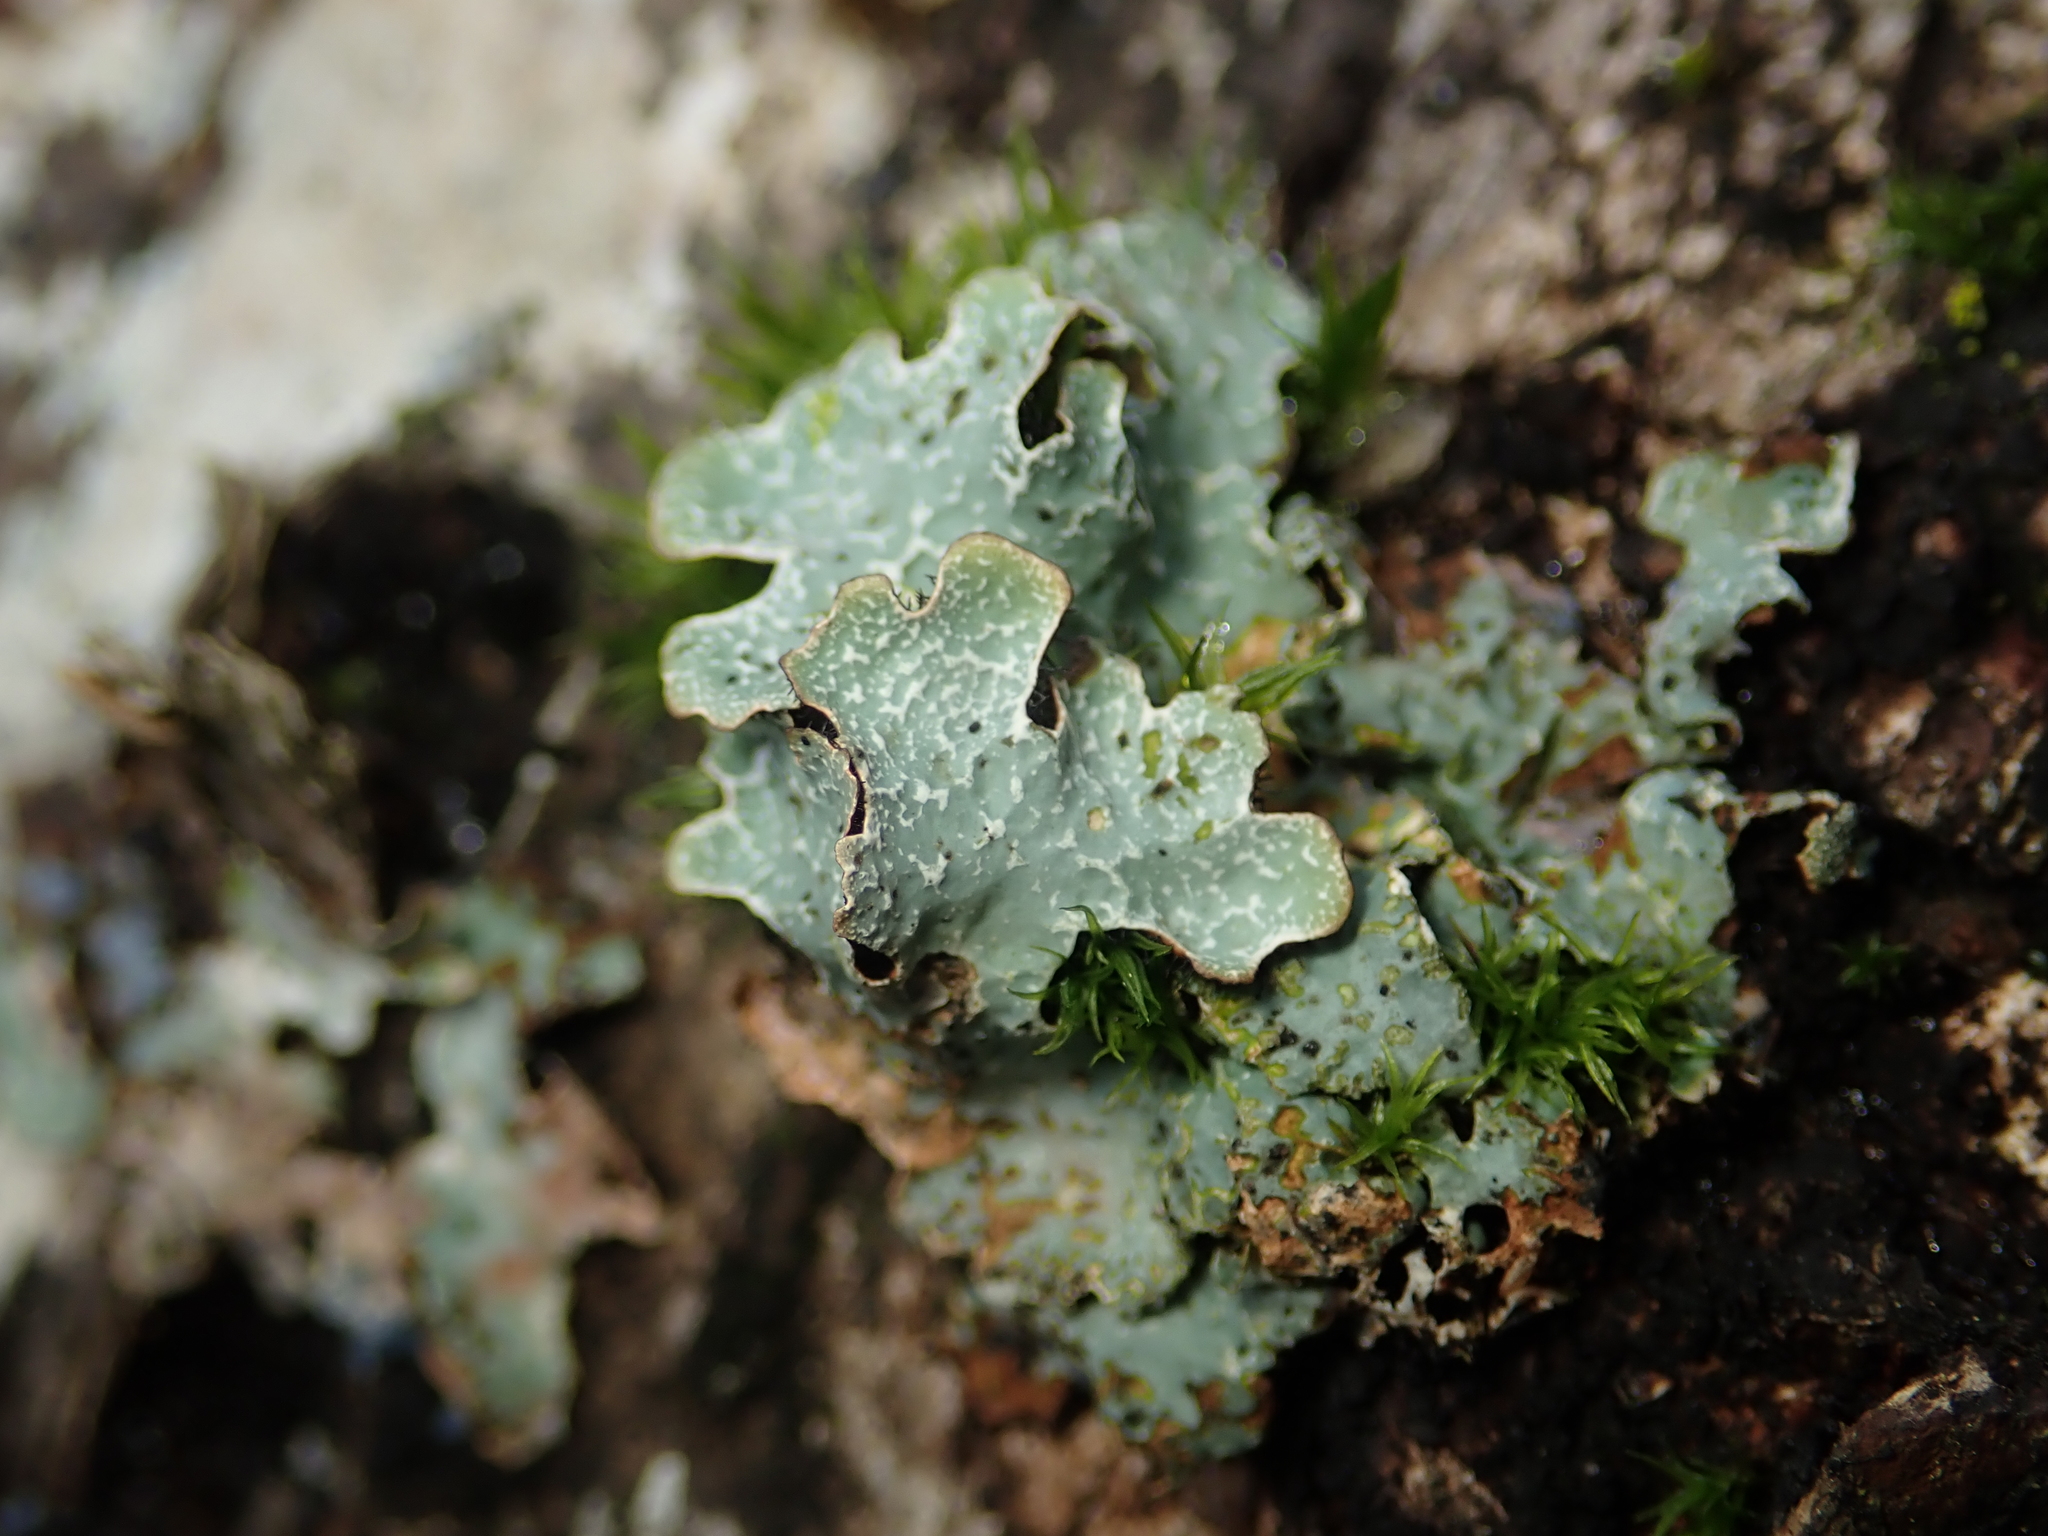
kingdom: Fungi
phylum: Ascomycota
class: Lecanoromycetes
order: Lecanorales
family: Parmeliaceae
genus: Parmelia
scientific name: Parmelia sulcata
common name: Netted shield lichen
